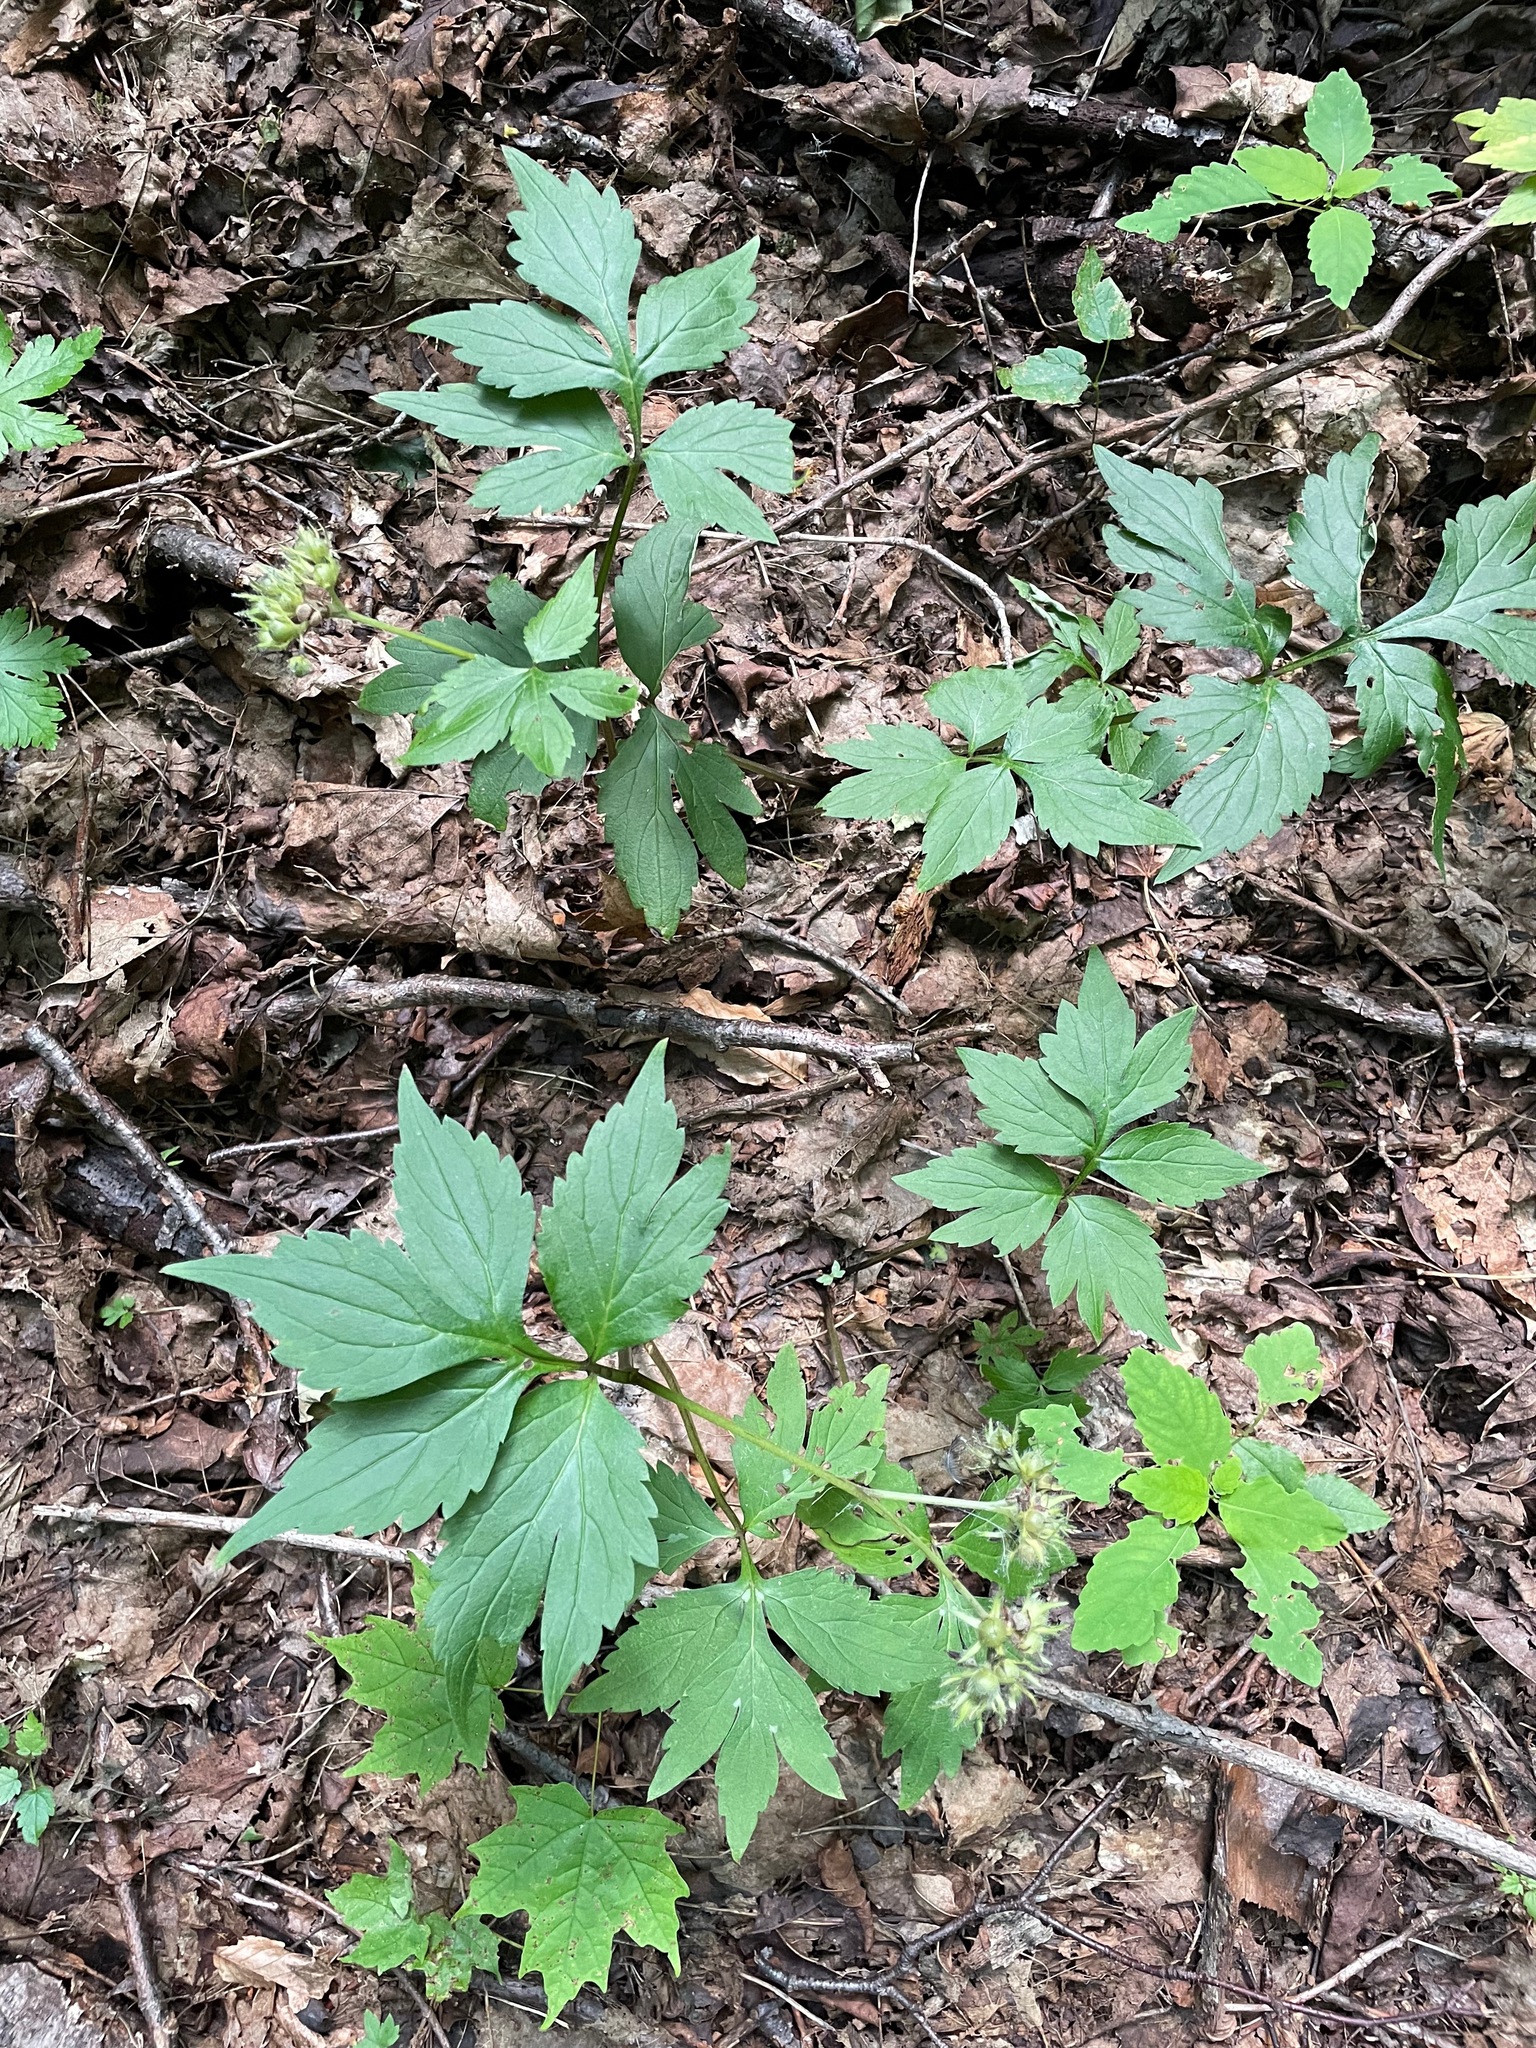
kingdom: Plantae
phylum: Tracheophyta
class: Magnoliopsida
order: Boraginales
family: Hydrophyllaceae
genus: Hydrophyllum
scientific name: Hydrophyllum virginianum
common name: Virginia waterleaf
